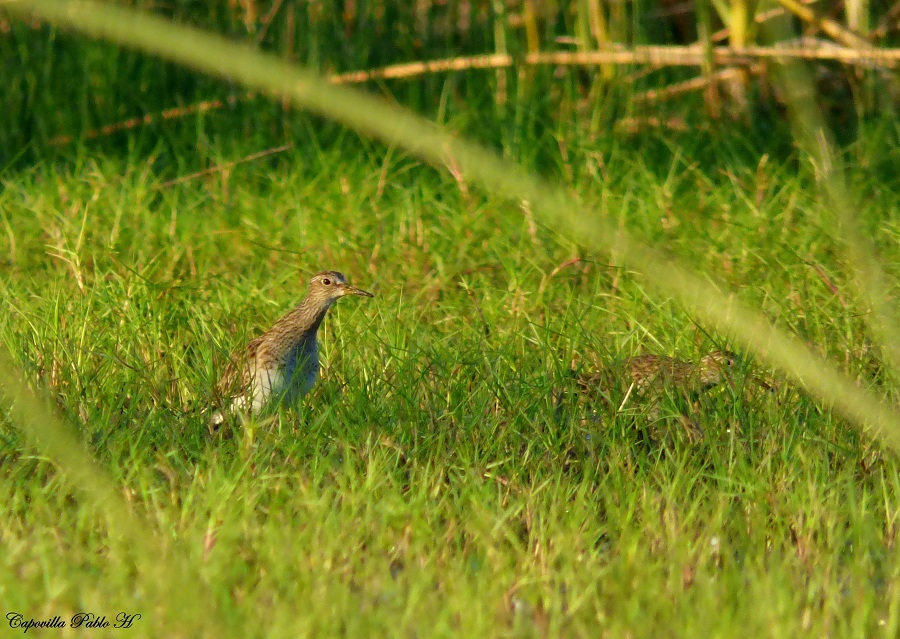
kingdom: Animalia
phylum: Chordata
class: Aves
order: Charadriiformes
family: Scolopacidae
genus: Calidris
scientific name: Calidris melanotos
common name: Pectoral sandpiper
